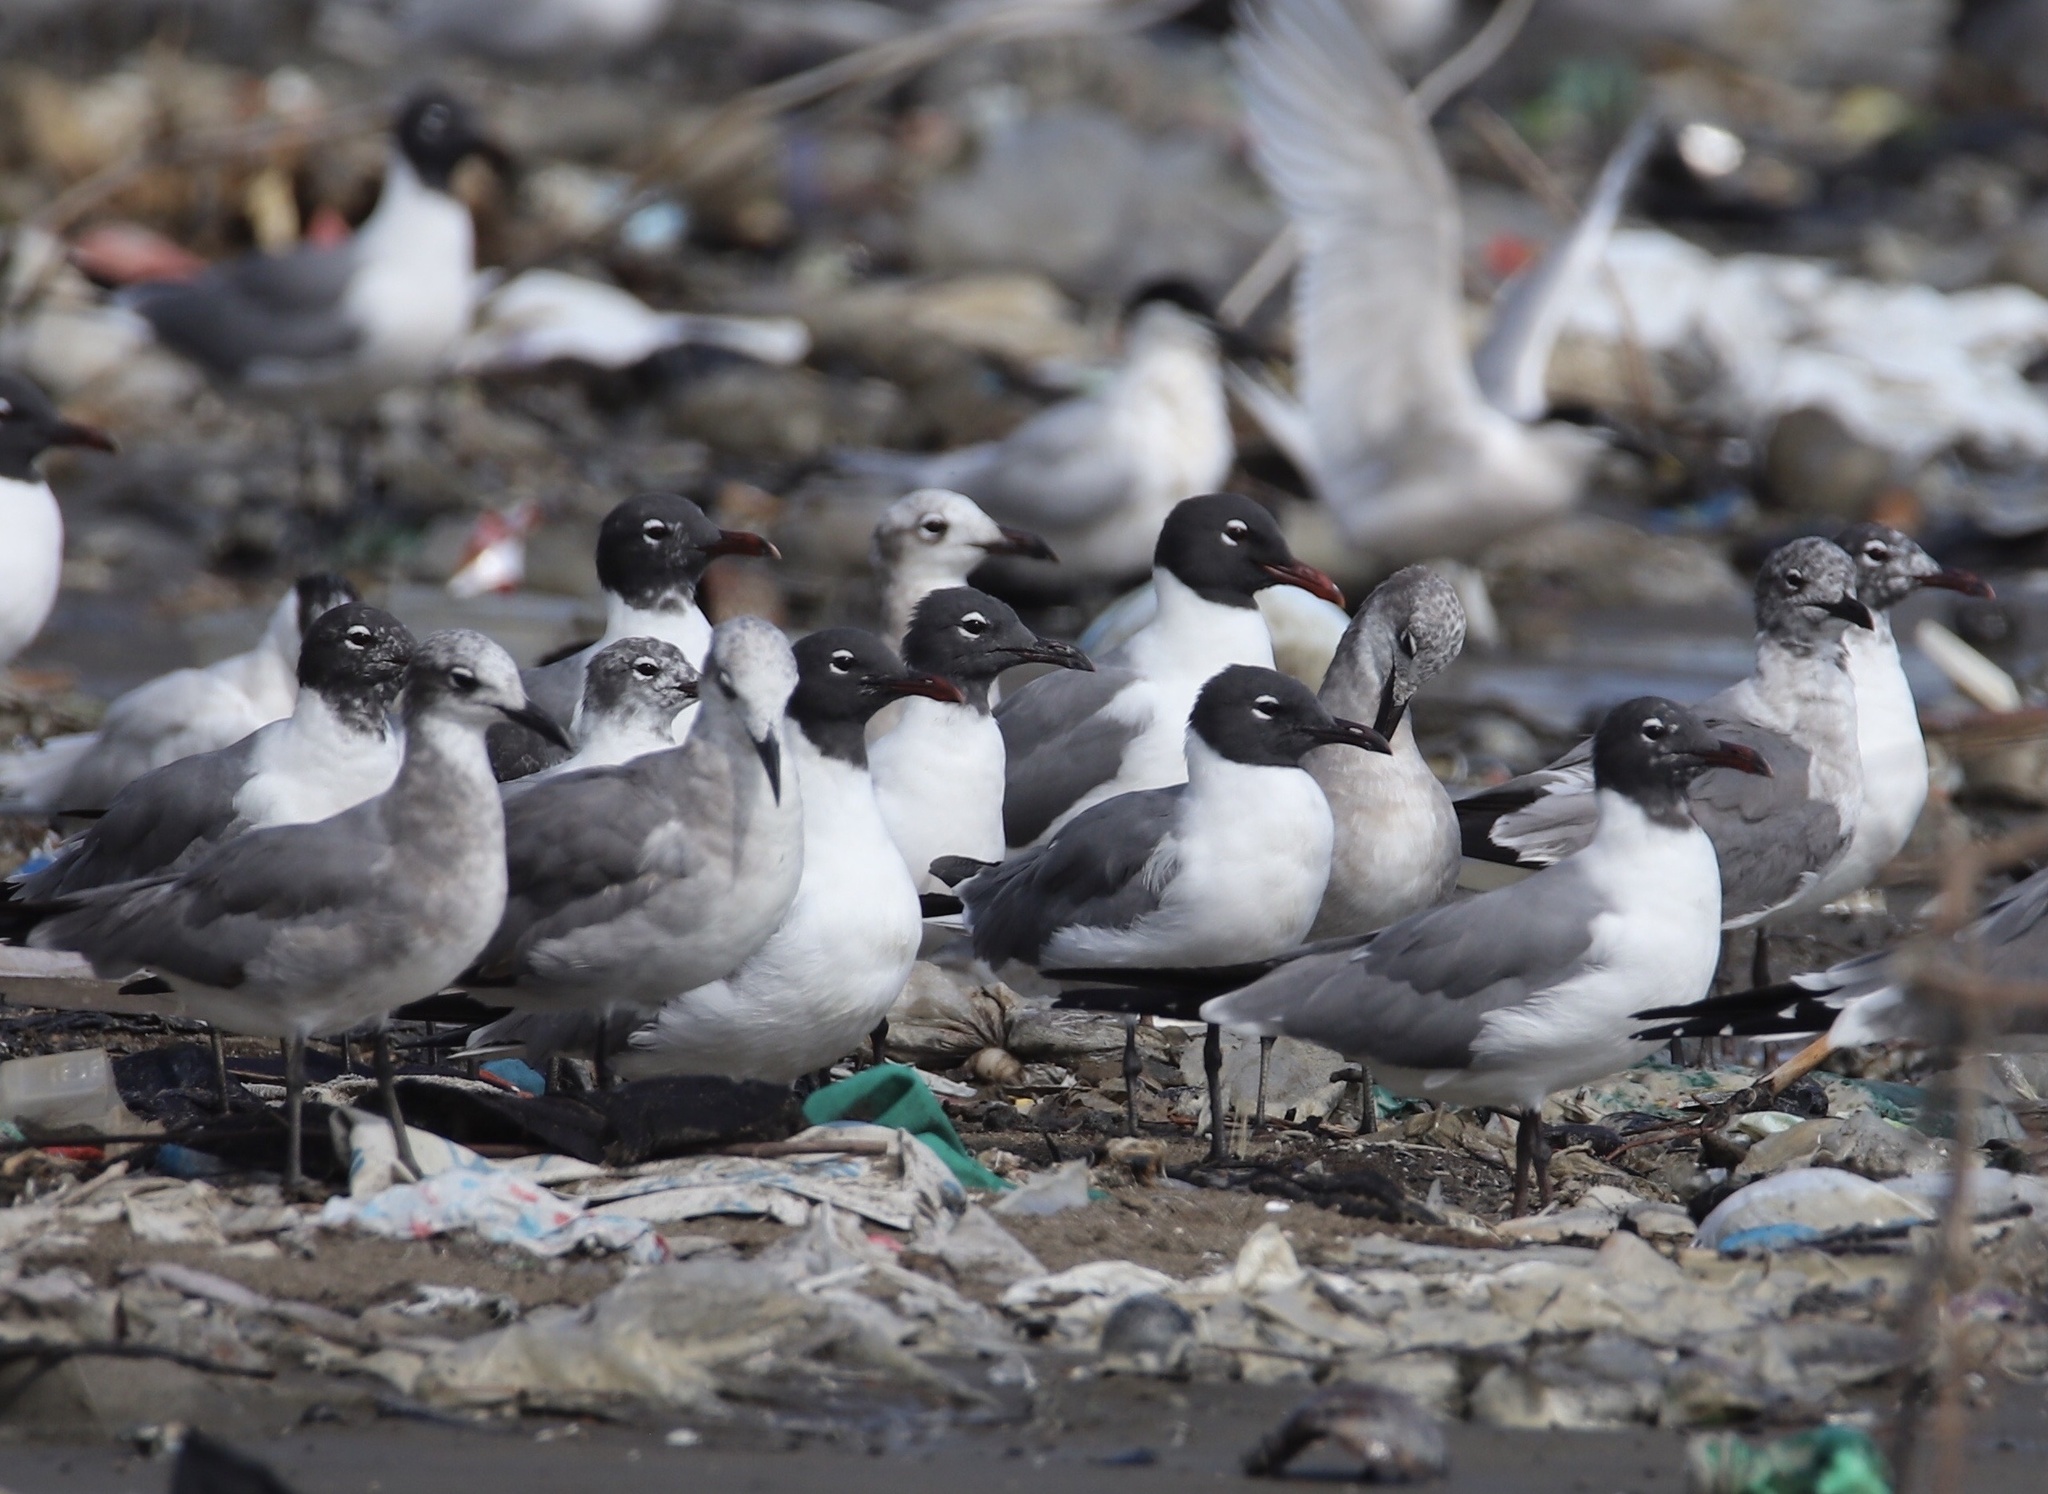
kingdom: Animalia
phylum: Chordata
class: Aves
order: Charadriiformes
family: Laridae
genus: Leucophaeus
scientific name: Leucophaeus atricilla
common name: Laughing gull
